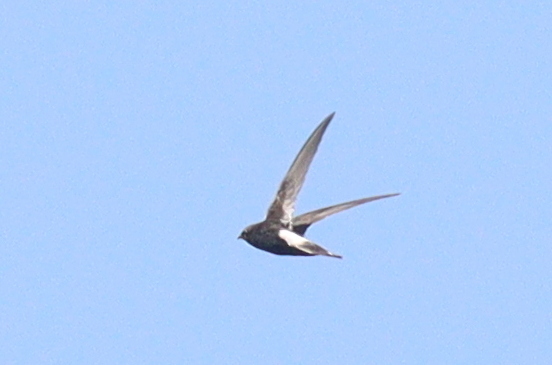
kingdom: Animalia
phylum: Chordata
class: Aves
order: Apodiformes
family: Apodidae
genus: Apus
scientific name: Apus affinis
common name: Little swift
